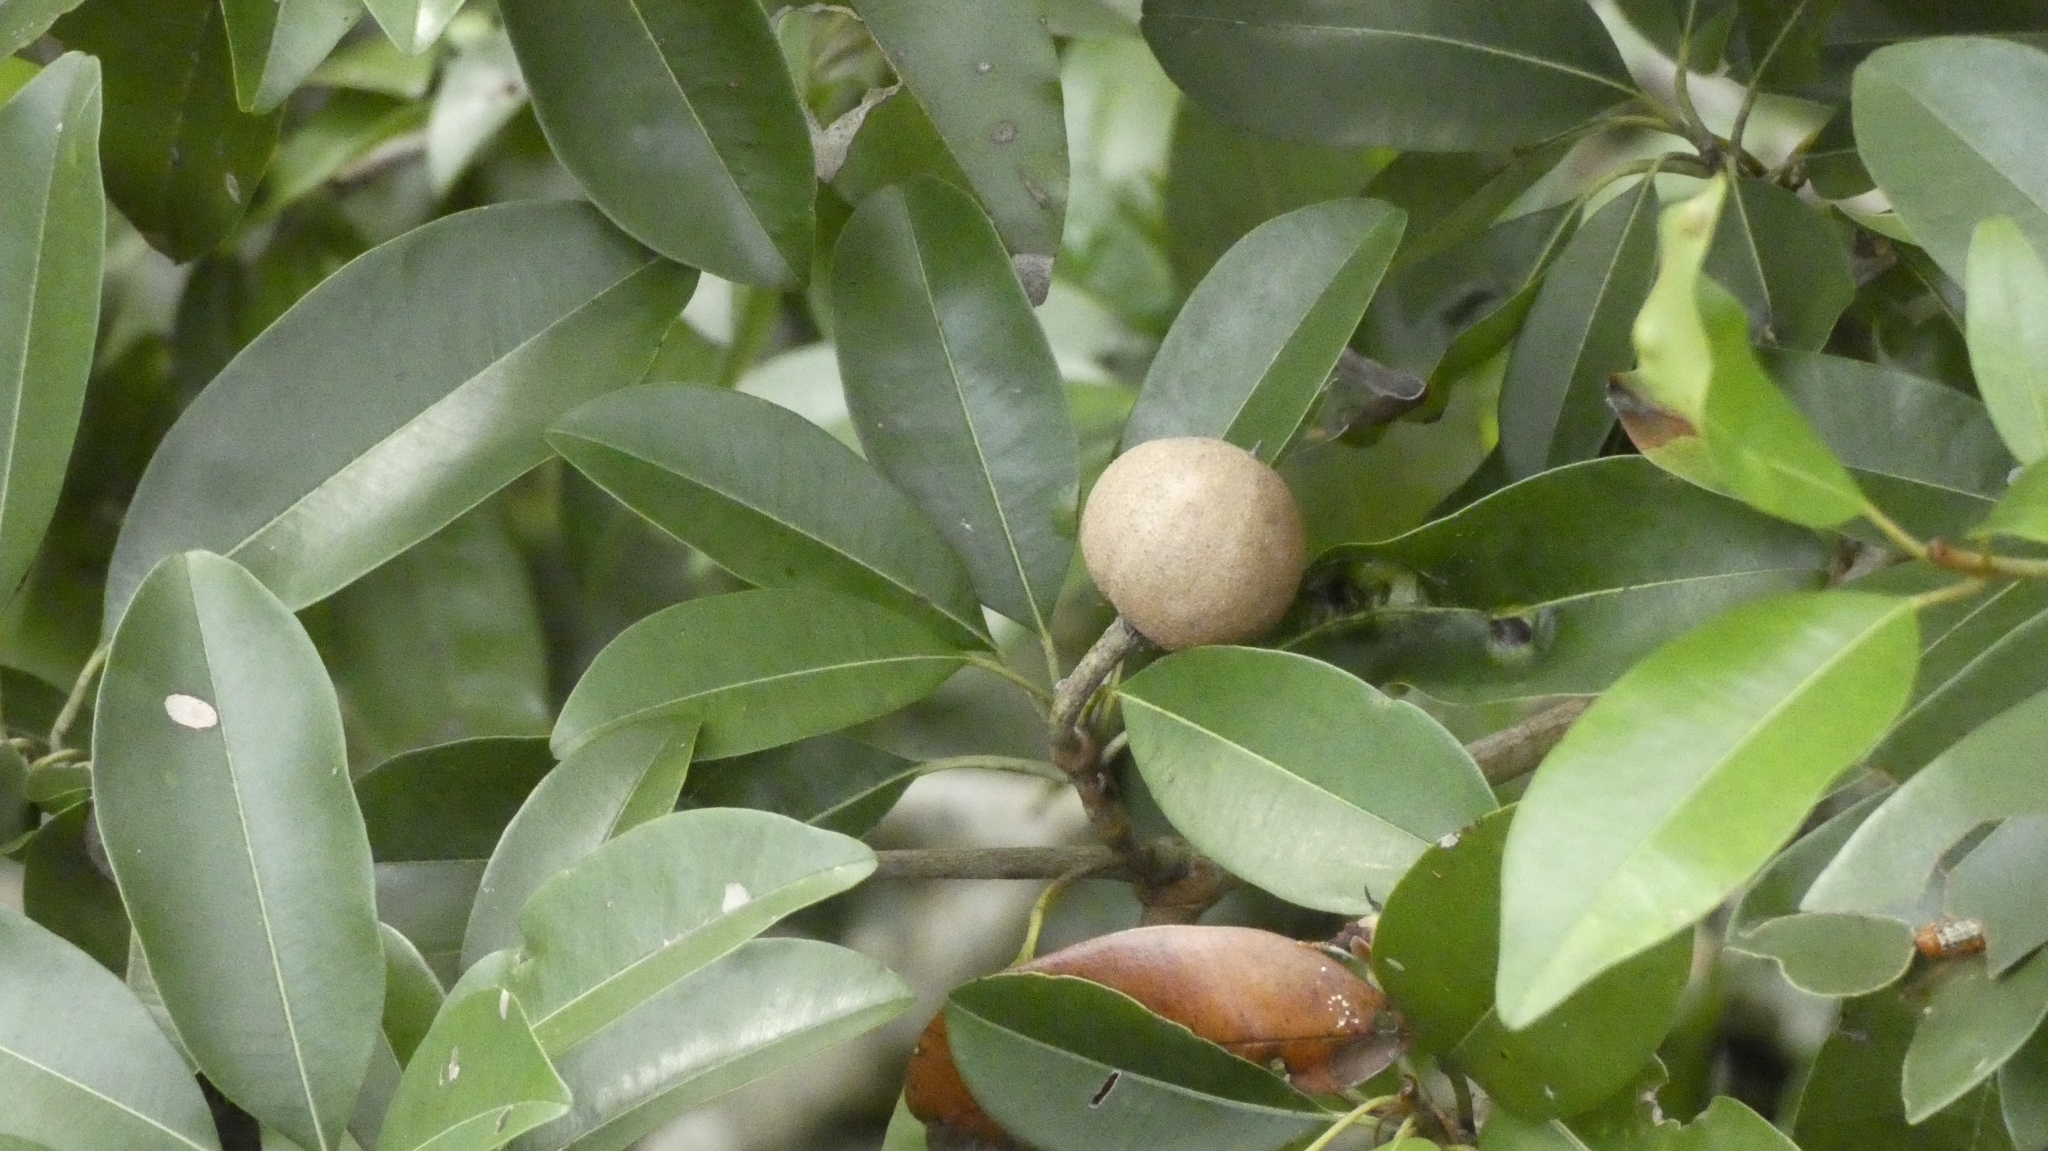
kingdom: Plantae
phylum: Tracheophyta
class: Magnoliopsida
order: Ericales
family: Sapotaceae
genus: Manilkara
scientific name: Manilkara zapota
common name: Sapodilla
